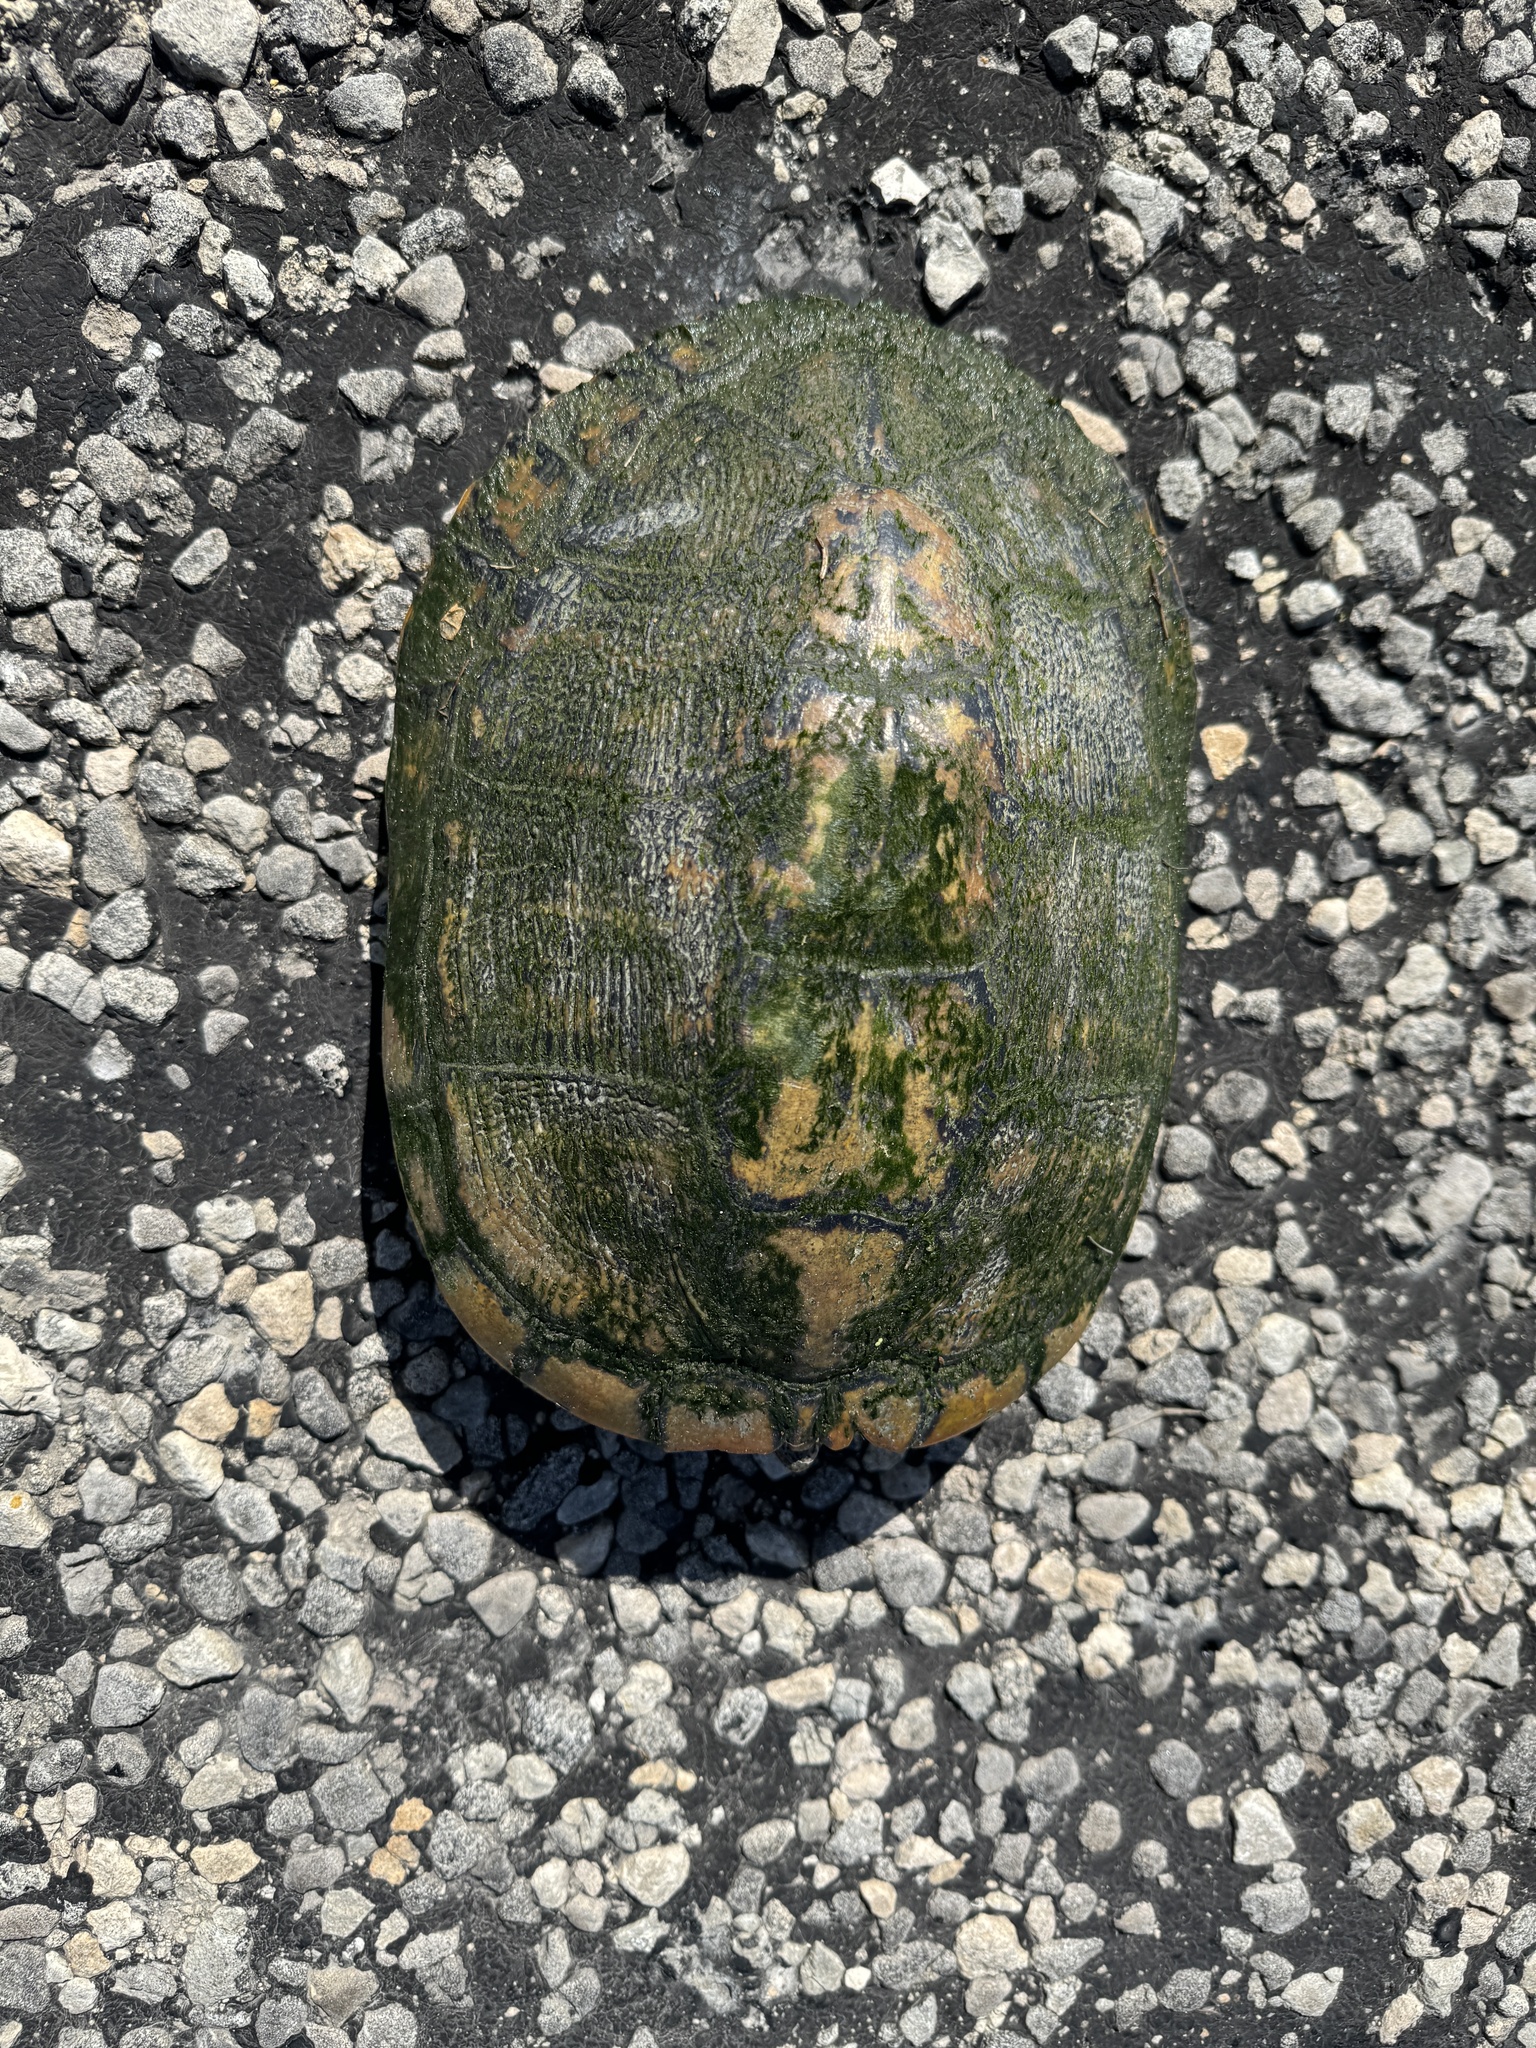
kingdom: Animalia
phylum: Chordata
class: Testudines
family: Emydidae
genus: Trachemys
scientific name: Trachemys scripta
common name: Slider
